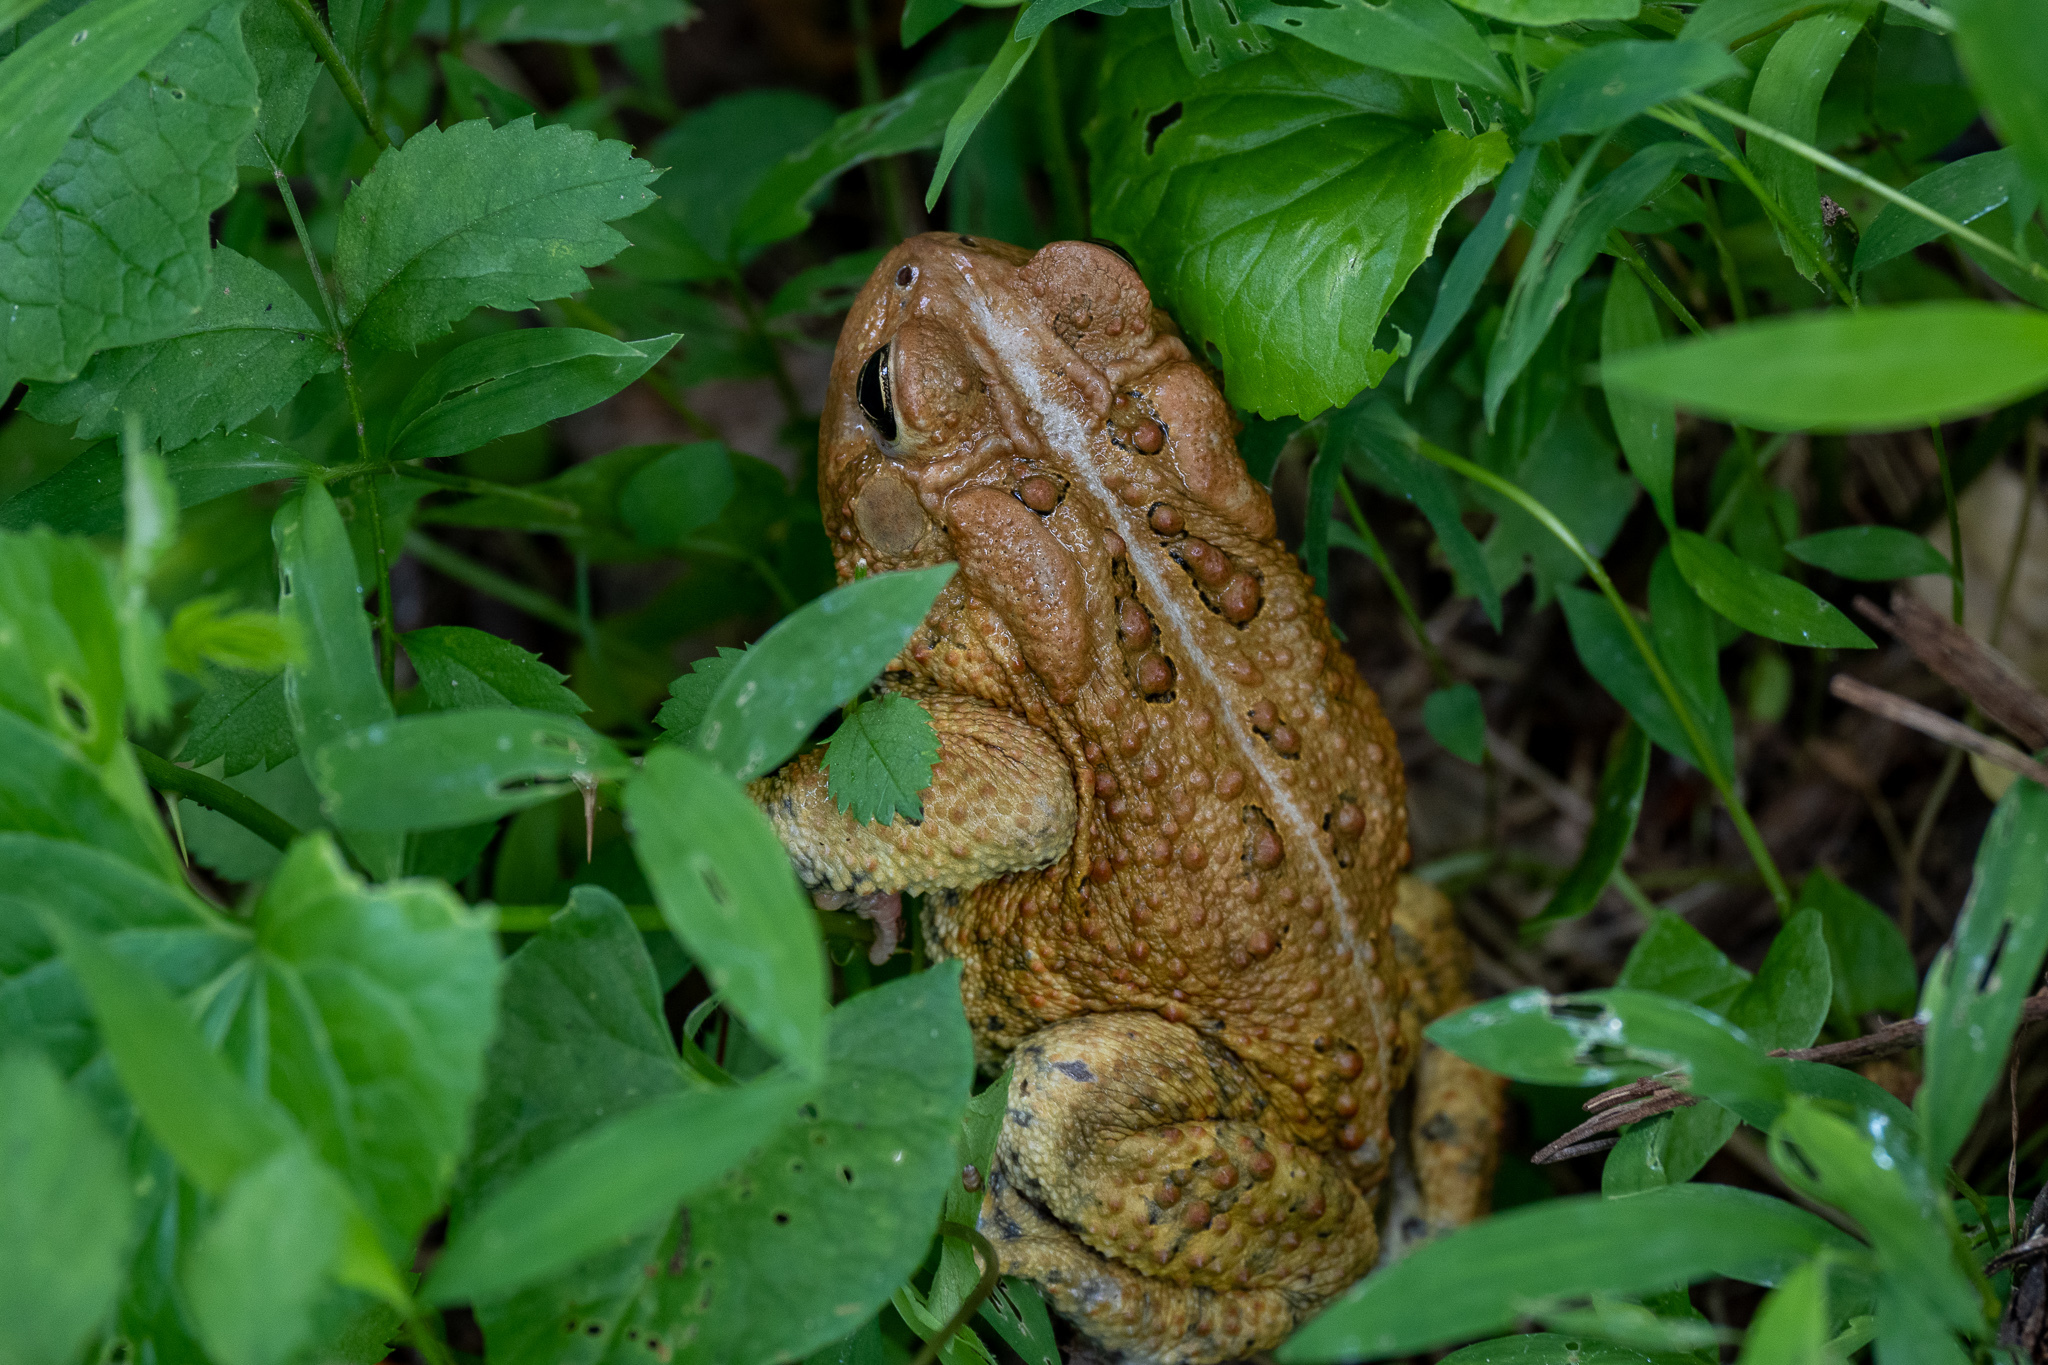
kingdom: Animalia
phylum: Chordata
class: Amphibia
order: Anura
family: Bufonidae
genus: Anaxyrus
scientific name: Anaxyrus americanus
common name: American toad
